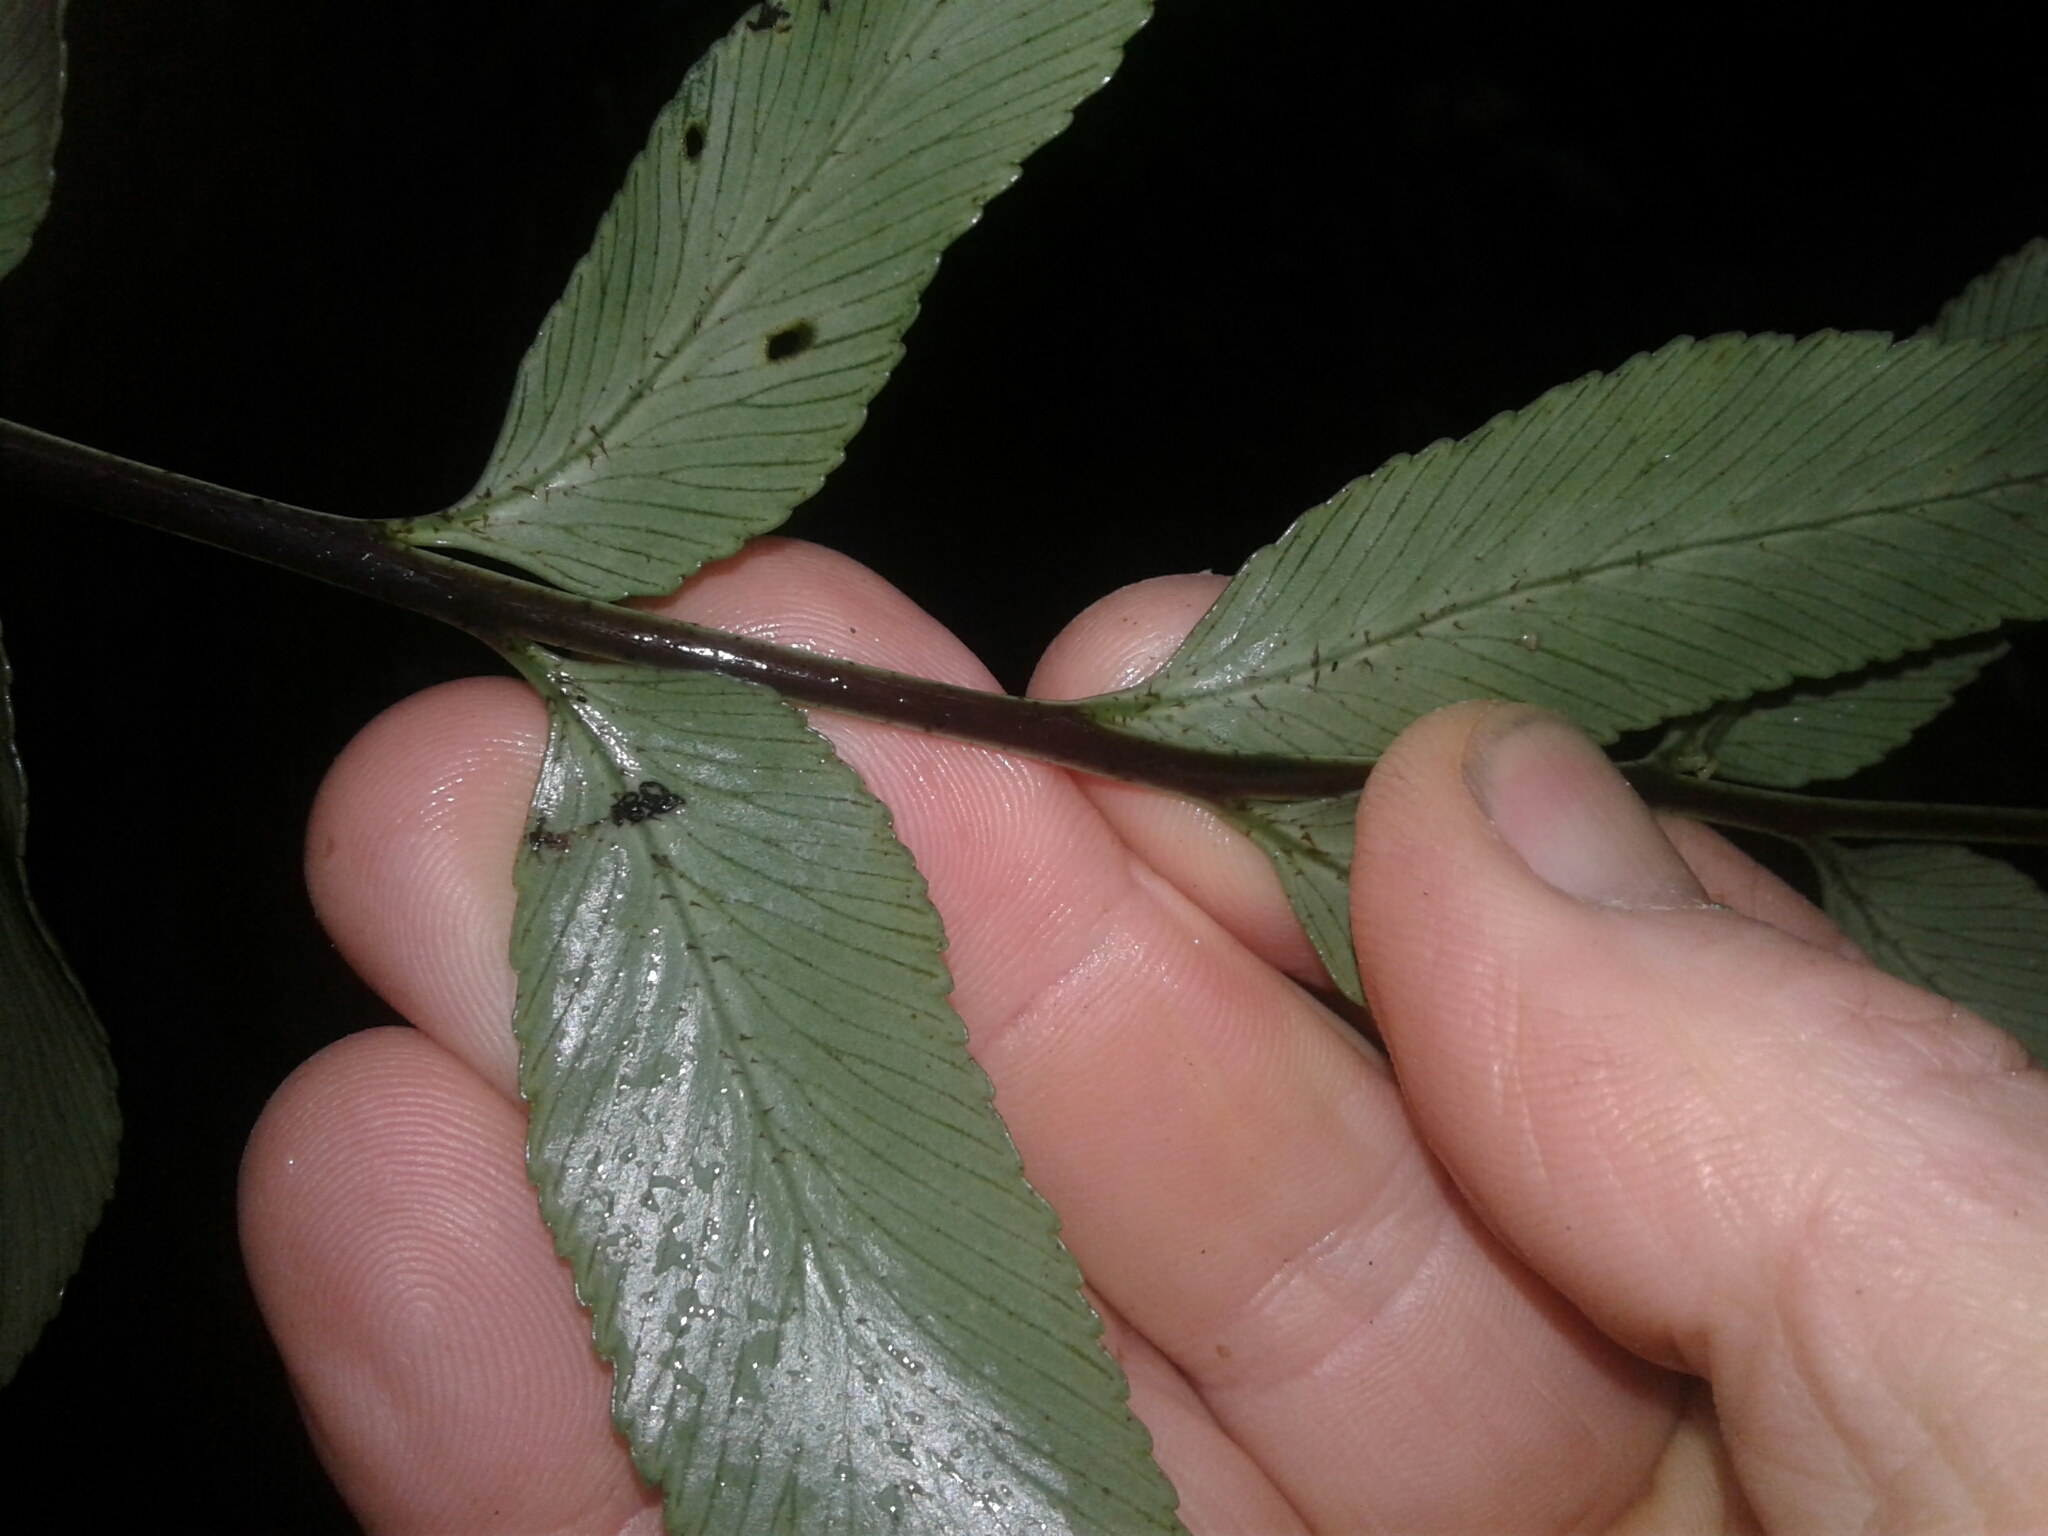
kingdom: Plantae
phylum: Tracheophyta
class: Polypodiopsida
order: Polypodiales
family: Aspleniaceae
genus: Asplenium
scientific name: Asplenium lepidotum
